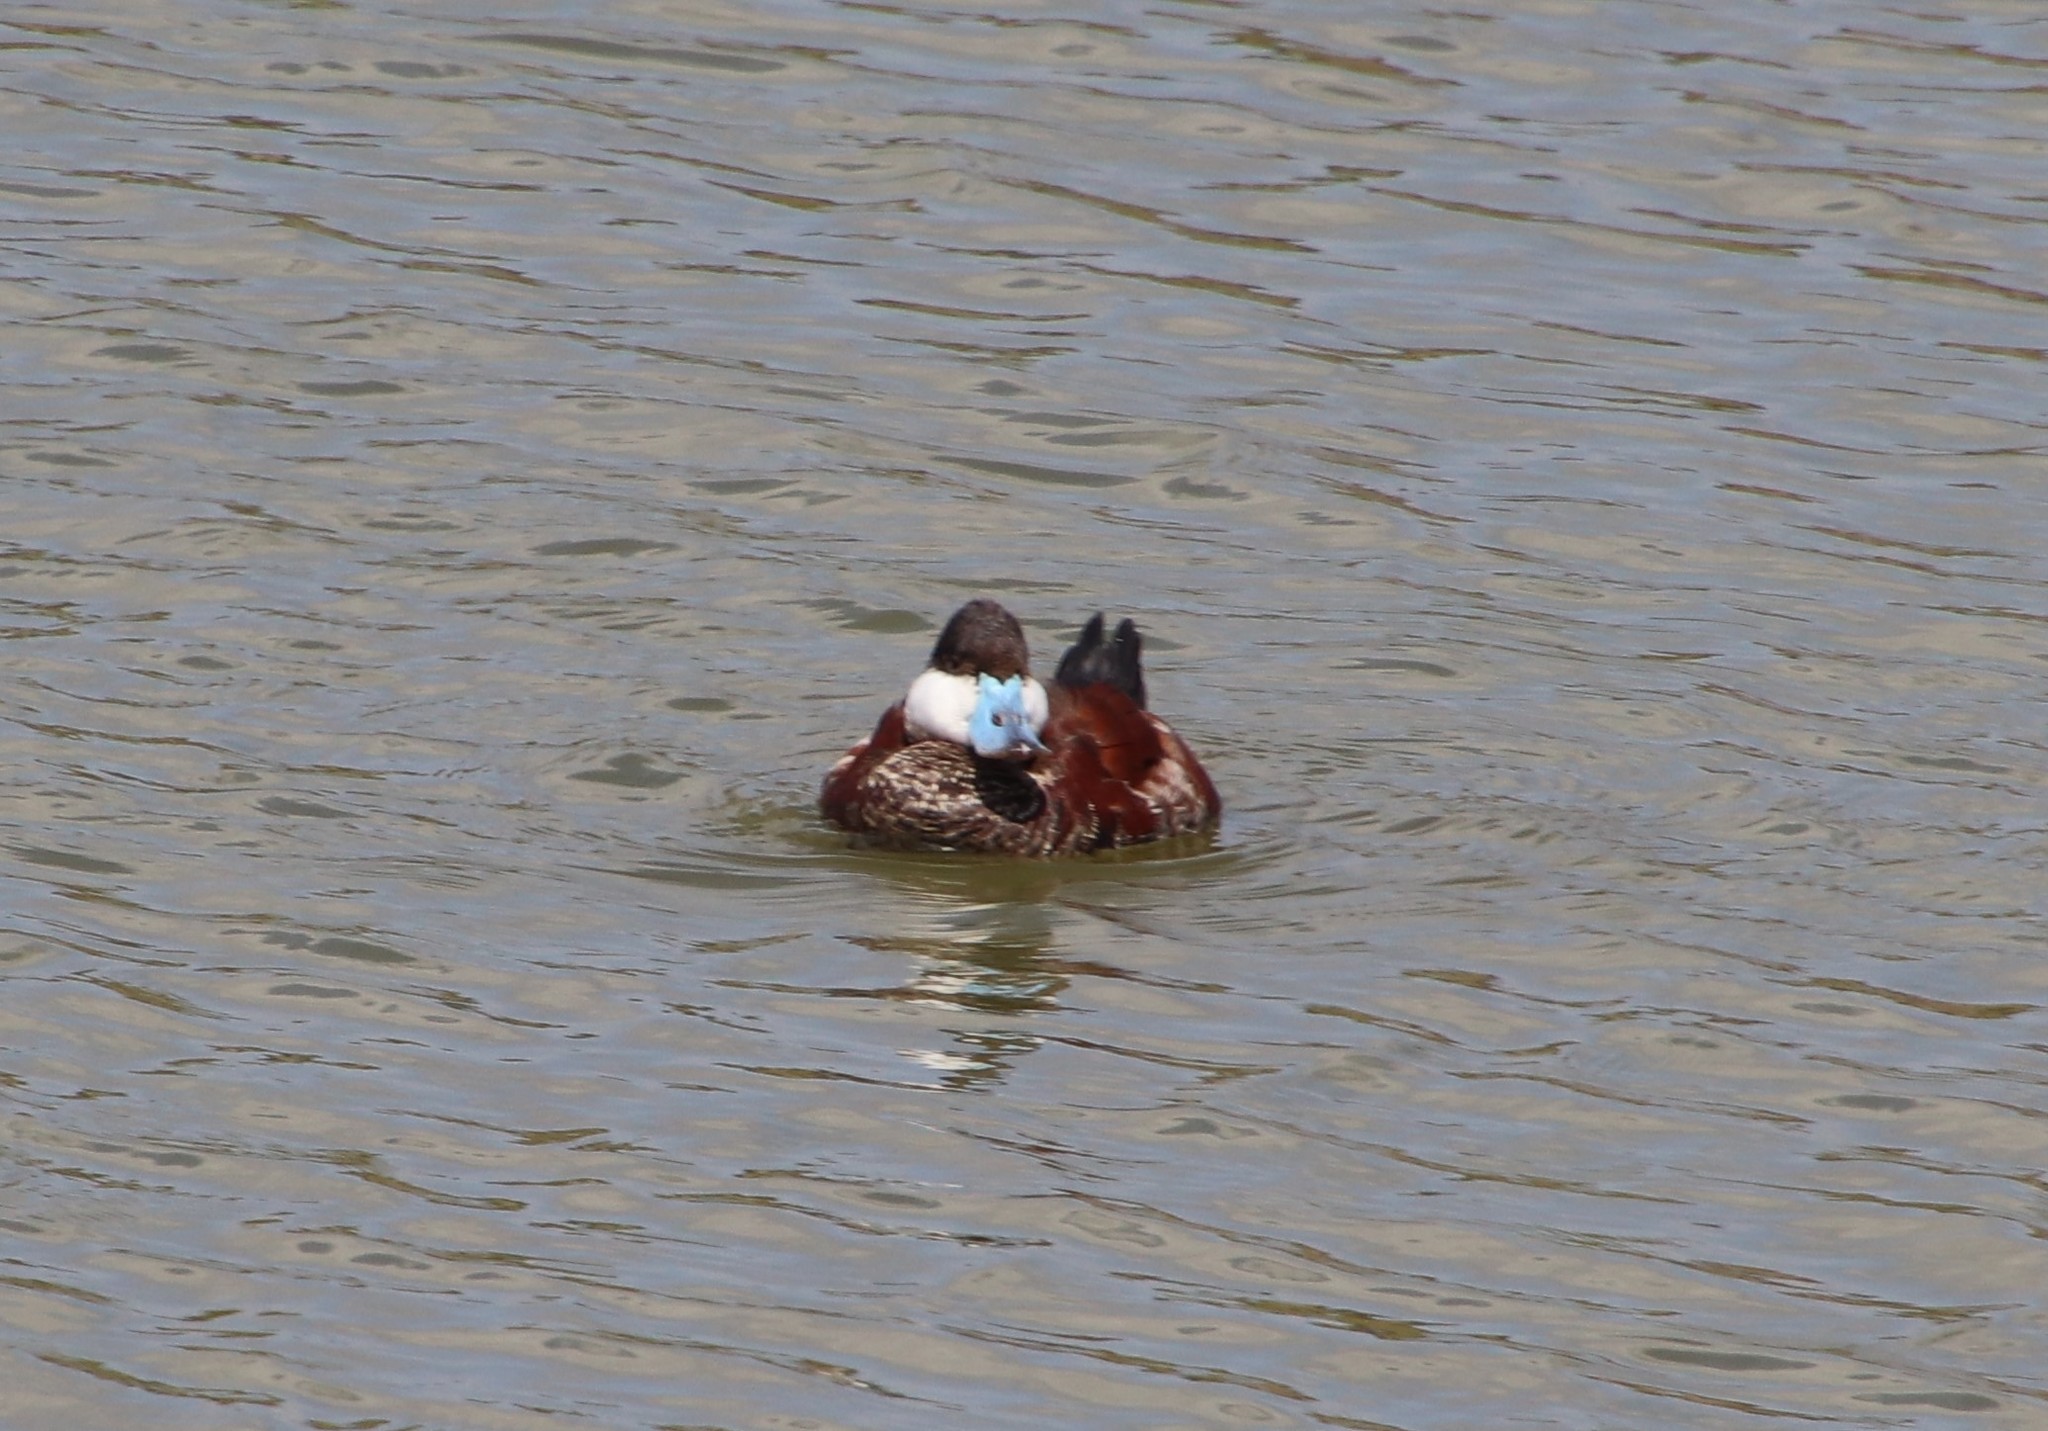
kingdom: Animalia
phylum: Chordata
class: Aves
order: Anseriformes
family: Anatidae
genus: Oxyura
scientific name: Oxyura jamaicensis
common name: Ruddy duck
